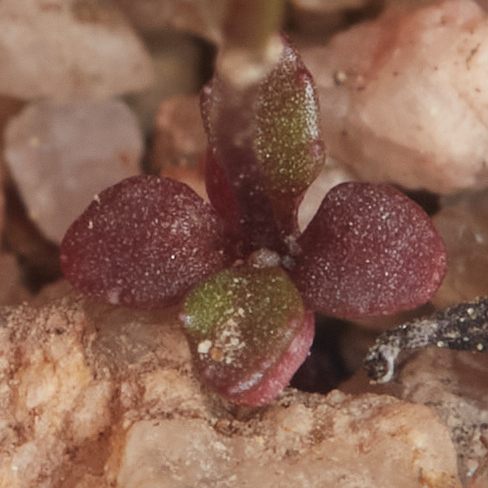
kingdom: Plantae
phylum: Tracheophyta
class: Magnoliopsida
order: Asterales
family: Campanulaceae
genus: Nemacladus
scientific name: Nemacladus ramosissimus
